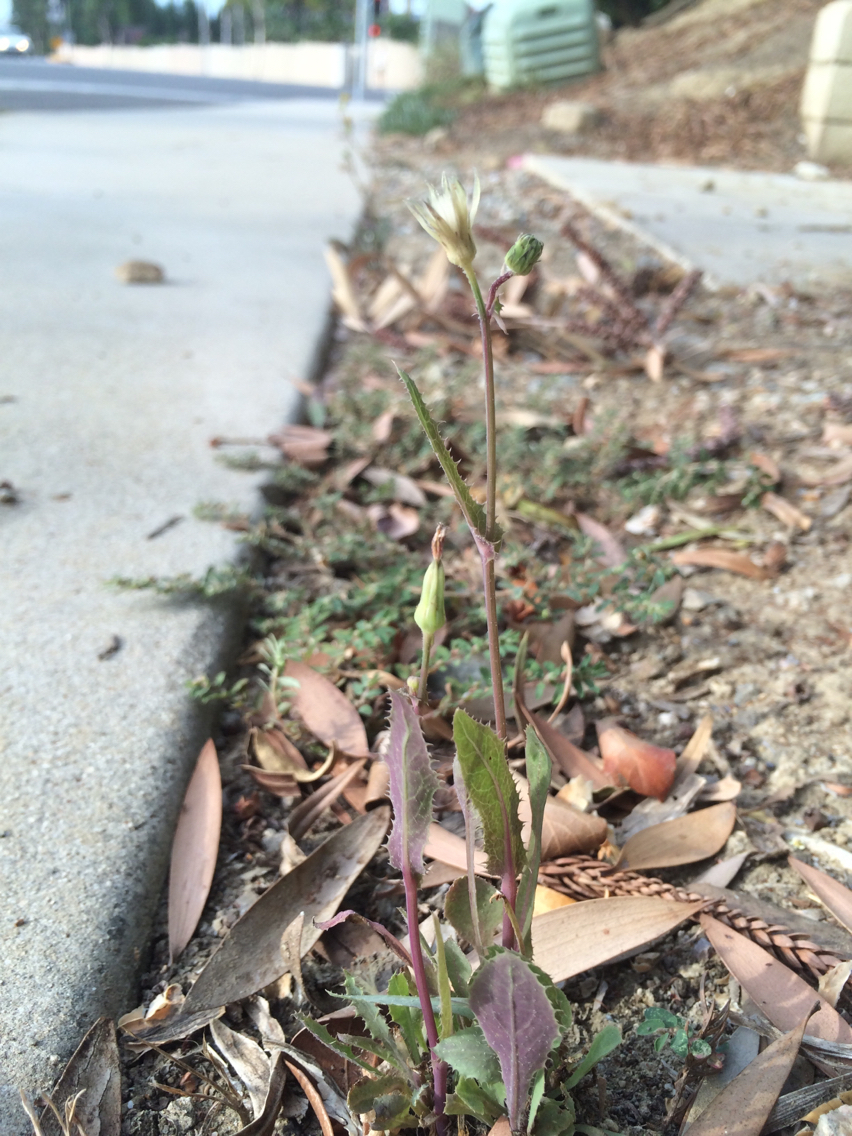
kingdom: Plantae
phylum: Tracheophyta
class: Magnoliopsida
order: Asterales
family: Asteraceae
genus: Sonchus
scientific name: Sonchus oleraceus
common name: Common sowthistle
